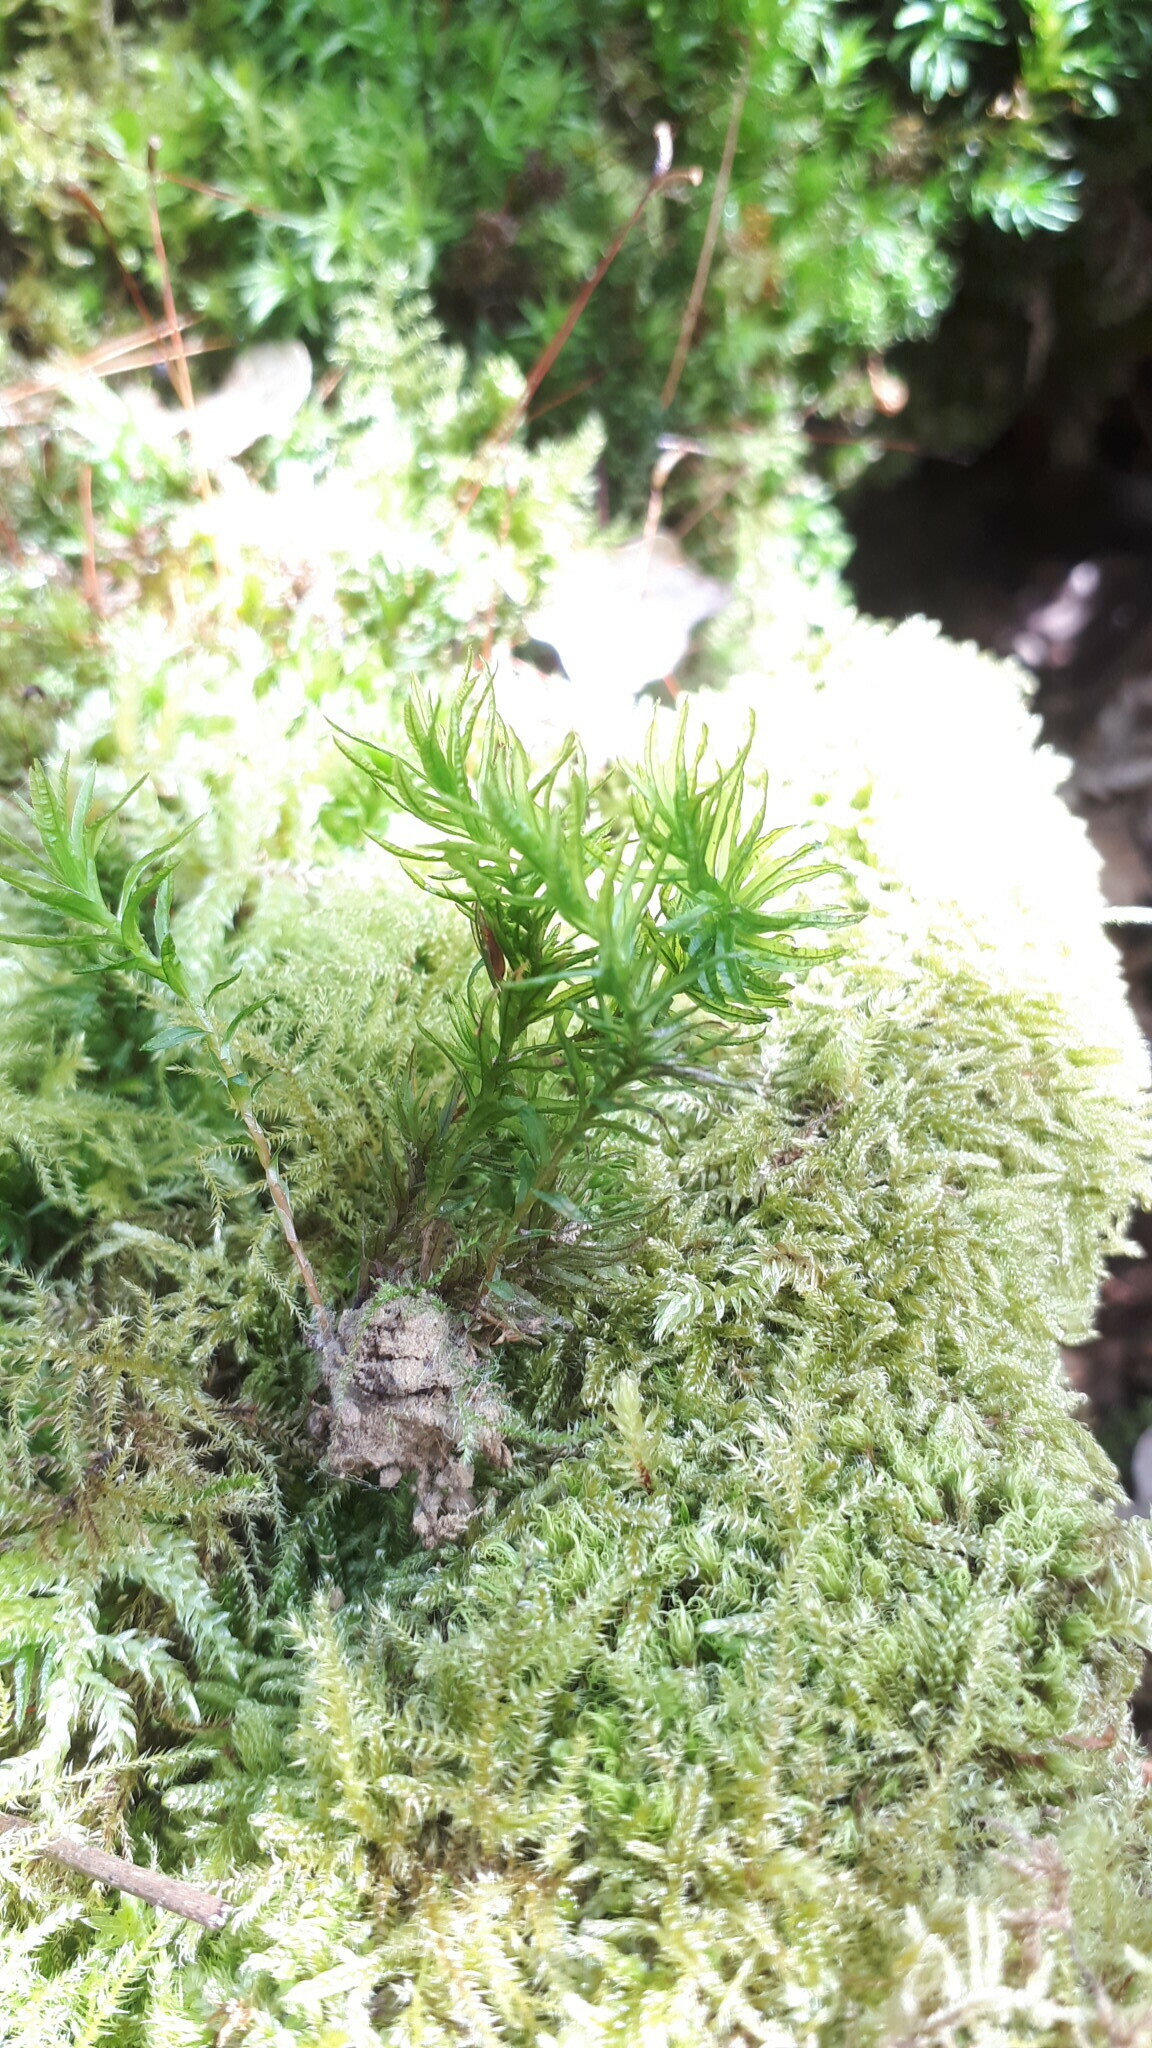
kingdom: Plantae
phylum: Bryophyta
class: Polytrichopsida
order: Polytrichales
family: Polytrichaceae
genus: Atrichum
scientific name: Atrichum undulatum
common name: Common smoothcap
